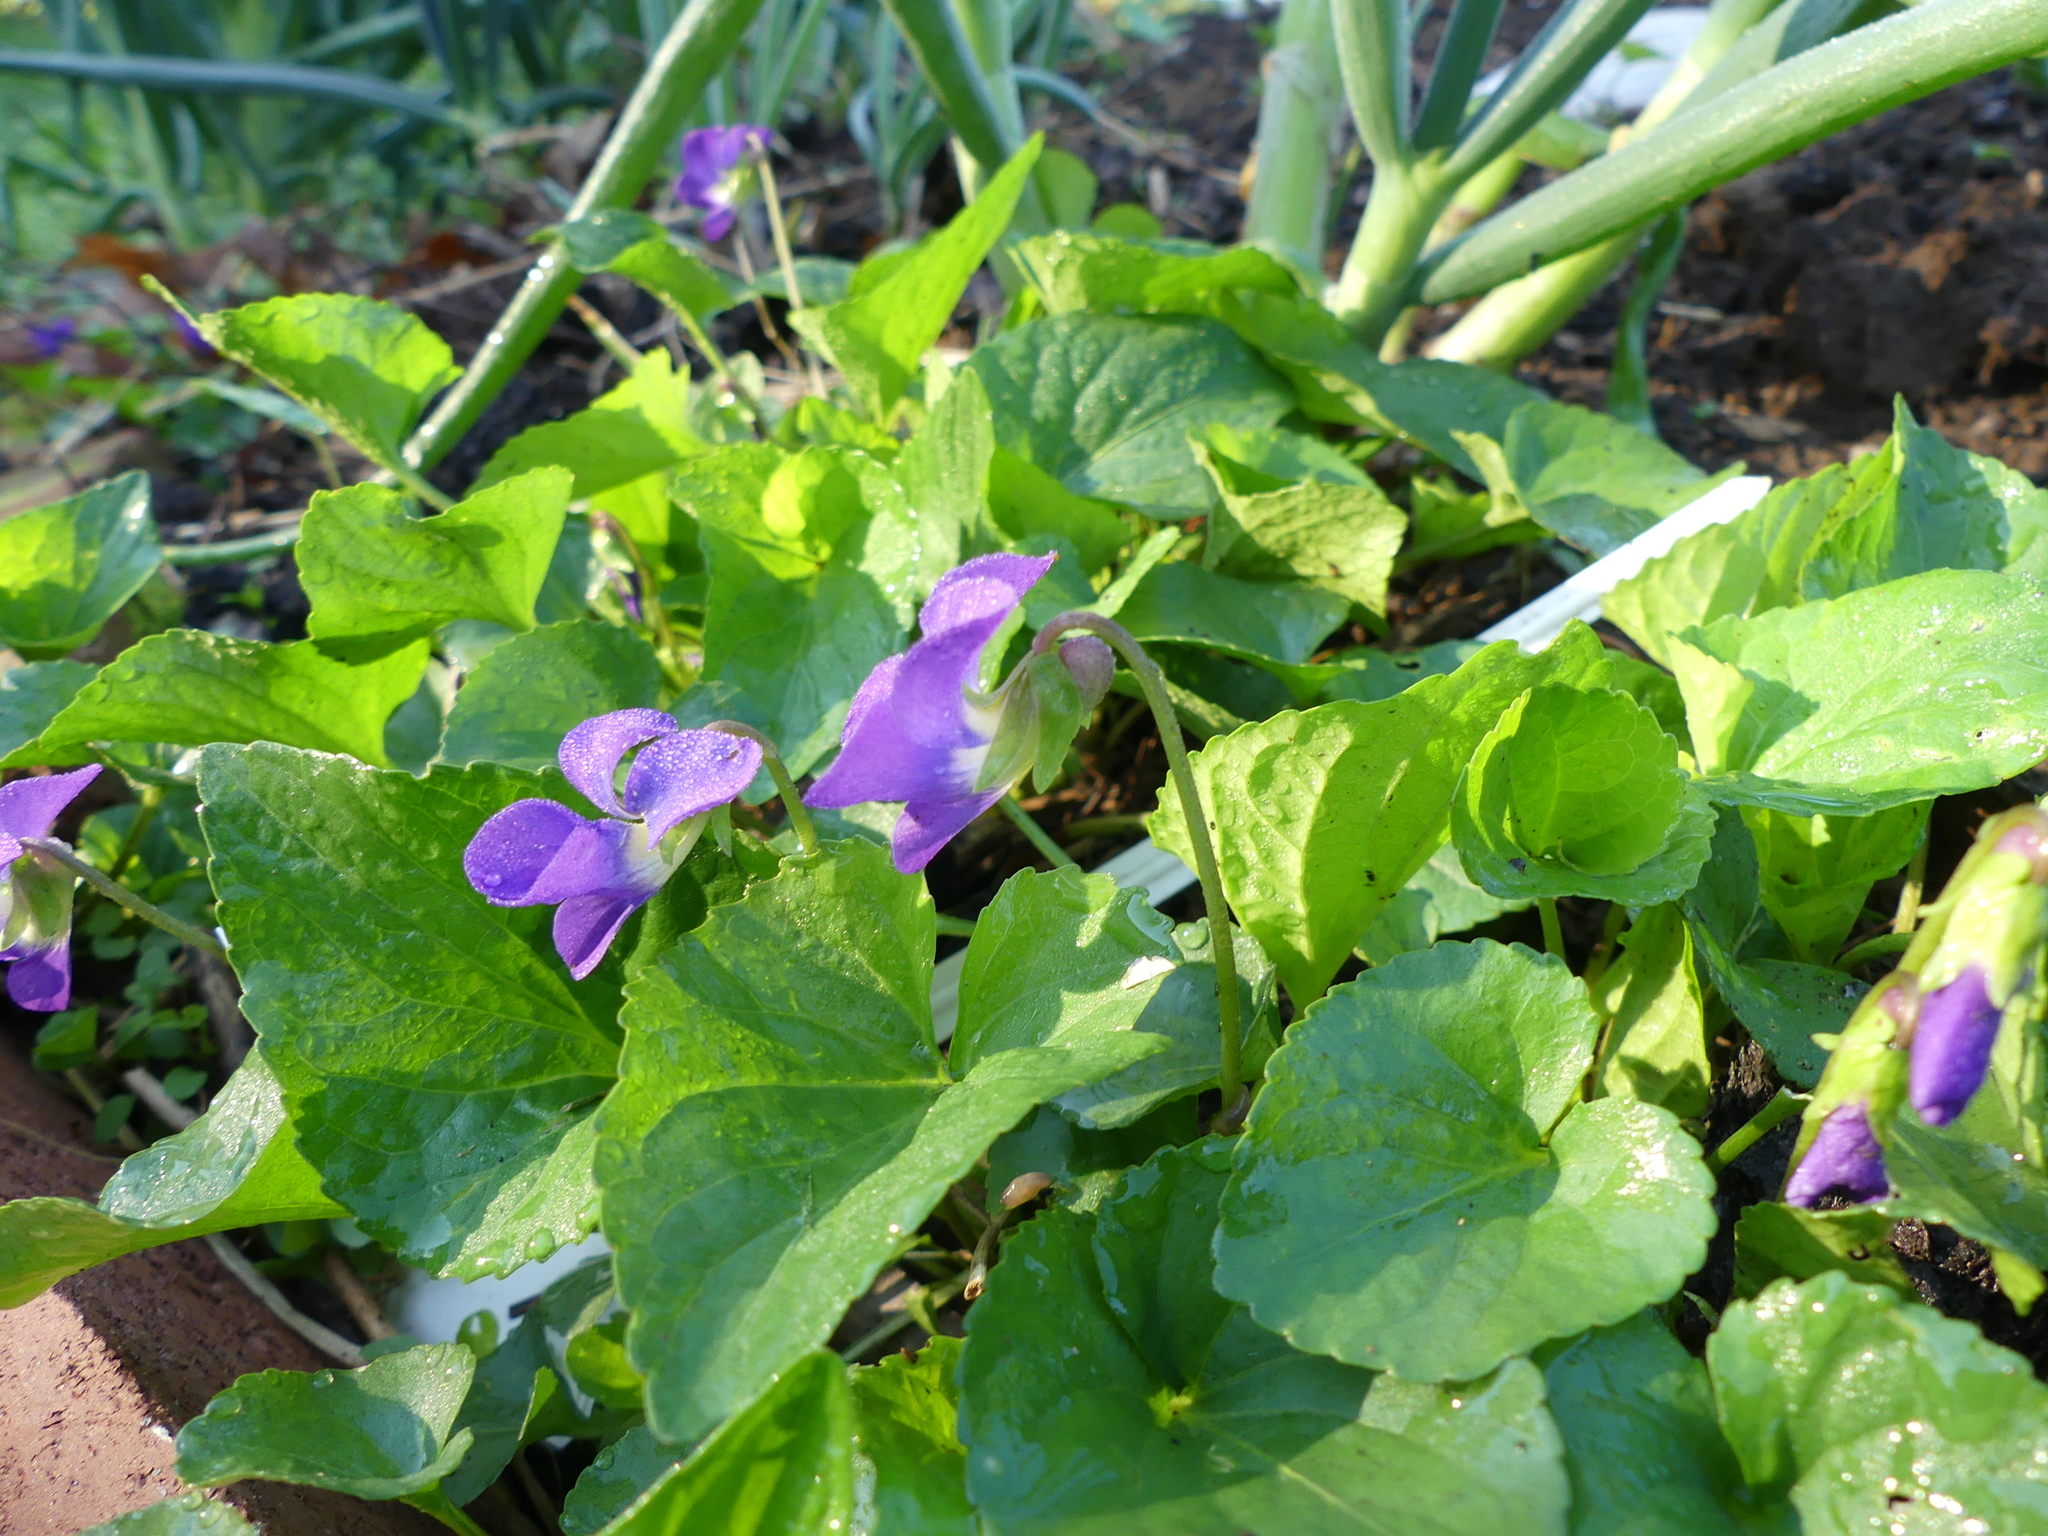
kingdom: Plantae
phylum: Tracheophyta
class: Magnoliopsida
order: Malpighiales
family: Violaceae
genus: Viola
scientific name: Viola sororia
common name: Dooryard violet
